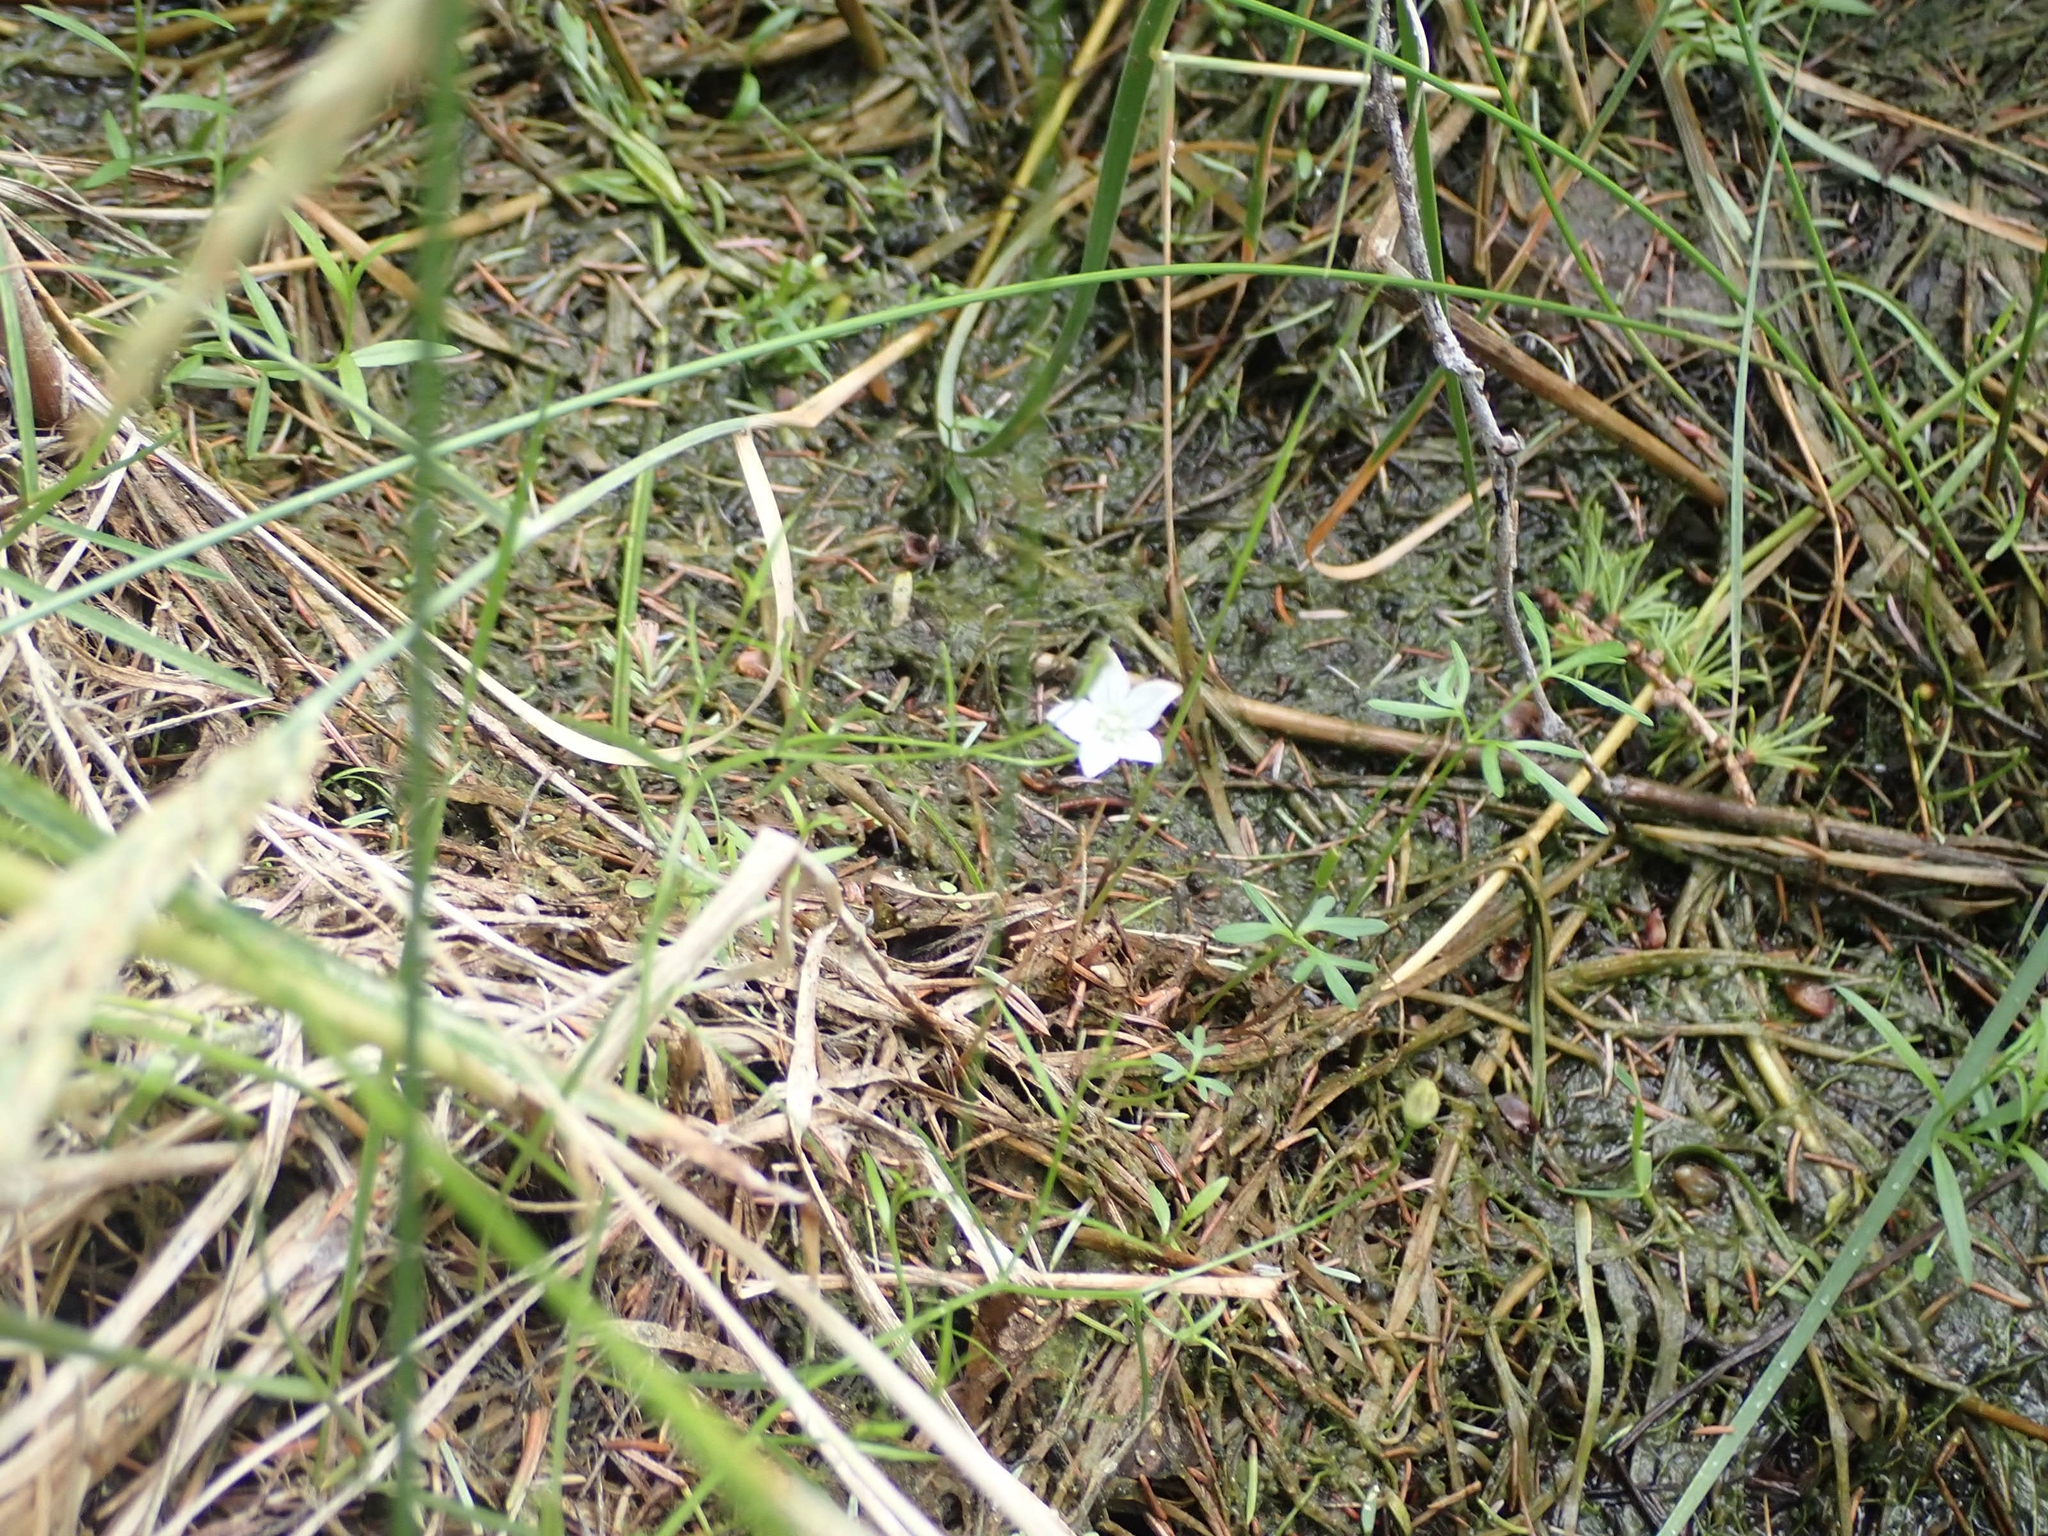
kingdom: Plantae
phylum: Tracheophyta
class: Magnoliopsida
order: Asterales
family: Campanulaceae
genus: Palustricodon
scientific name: Palustricodon aparinoides
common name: Bedstraw bellflower
